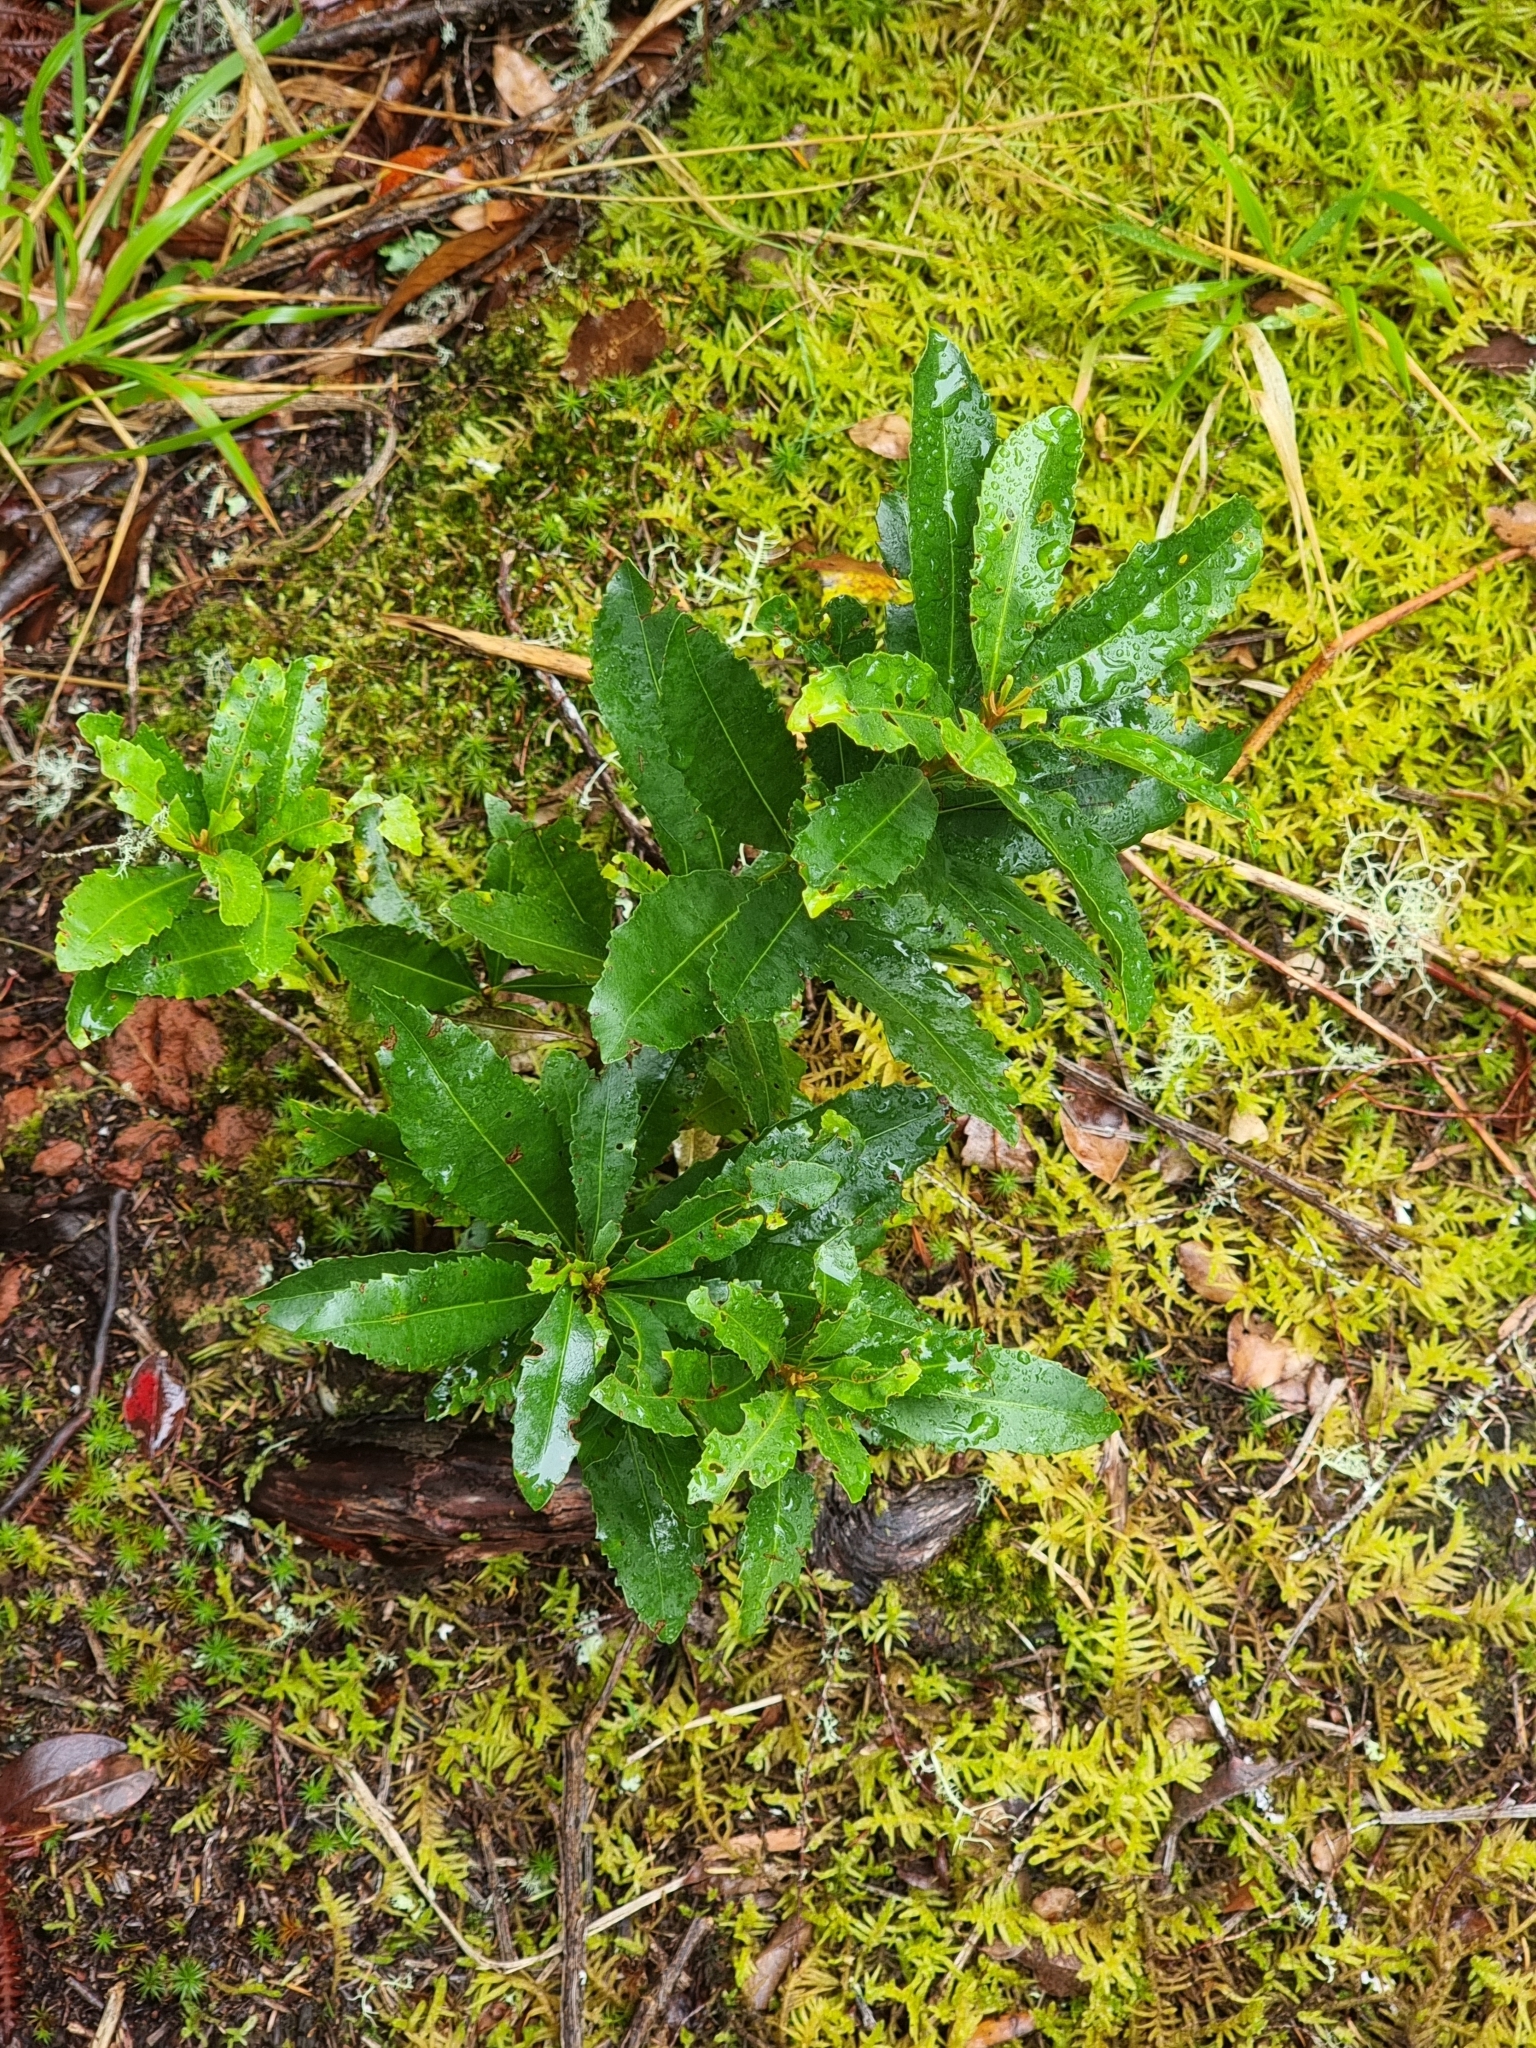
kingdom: Plantae
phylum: Tracheophyta
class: Magnoliopsida
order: Fagales
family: Myricaceae
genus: Morella
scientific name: Morella faya
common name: Firetree
